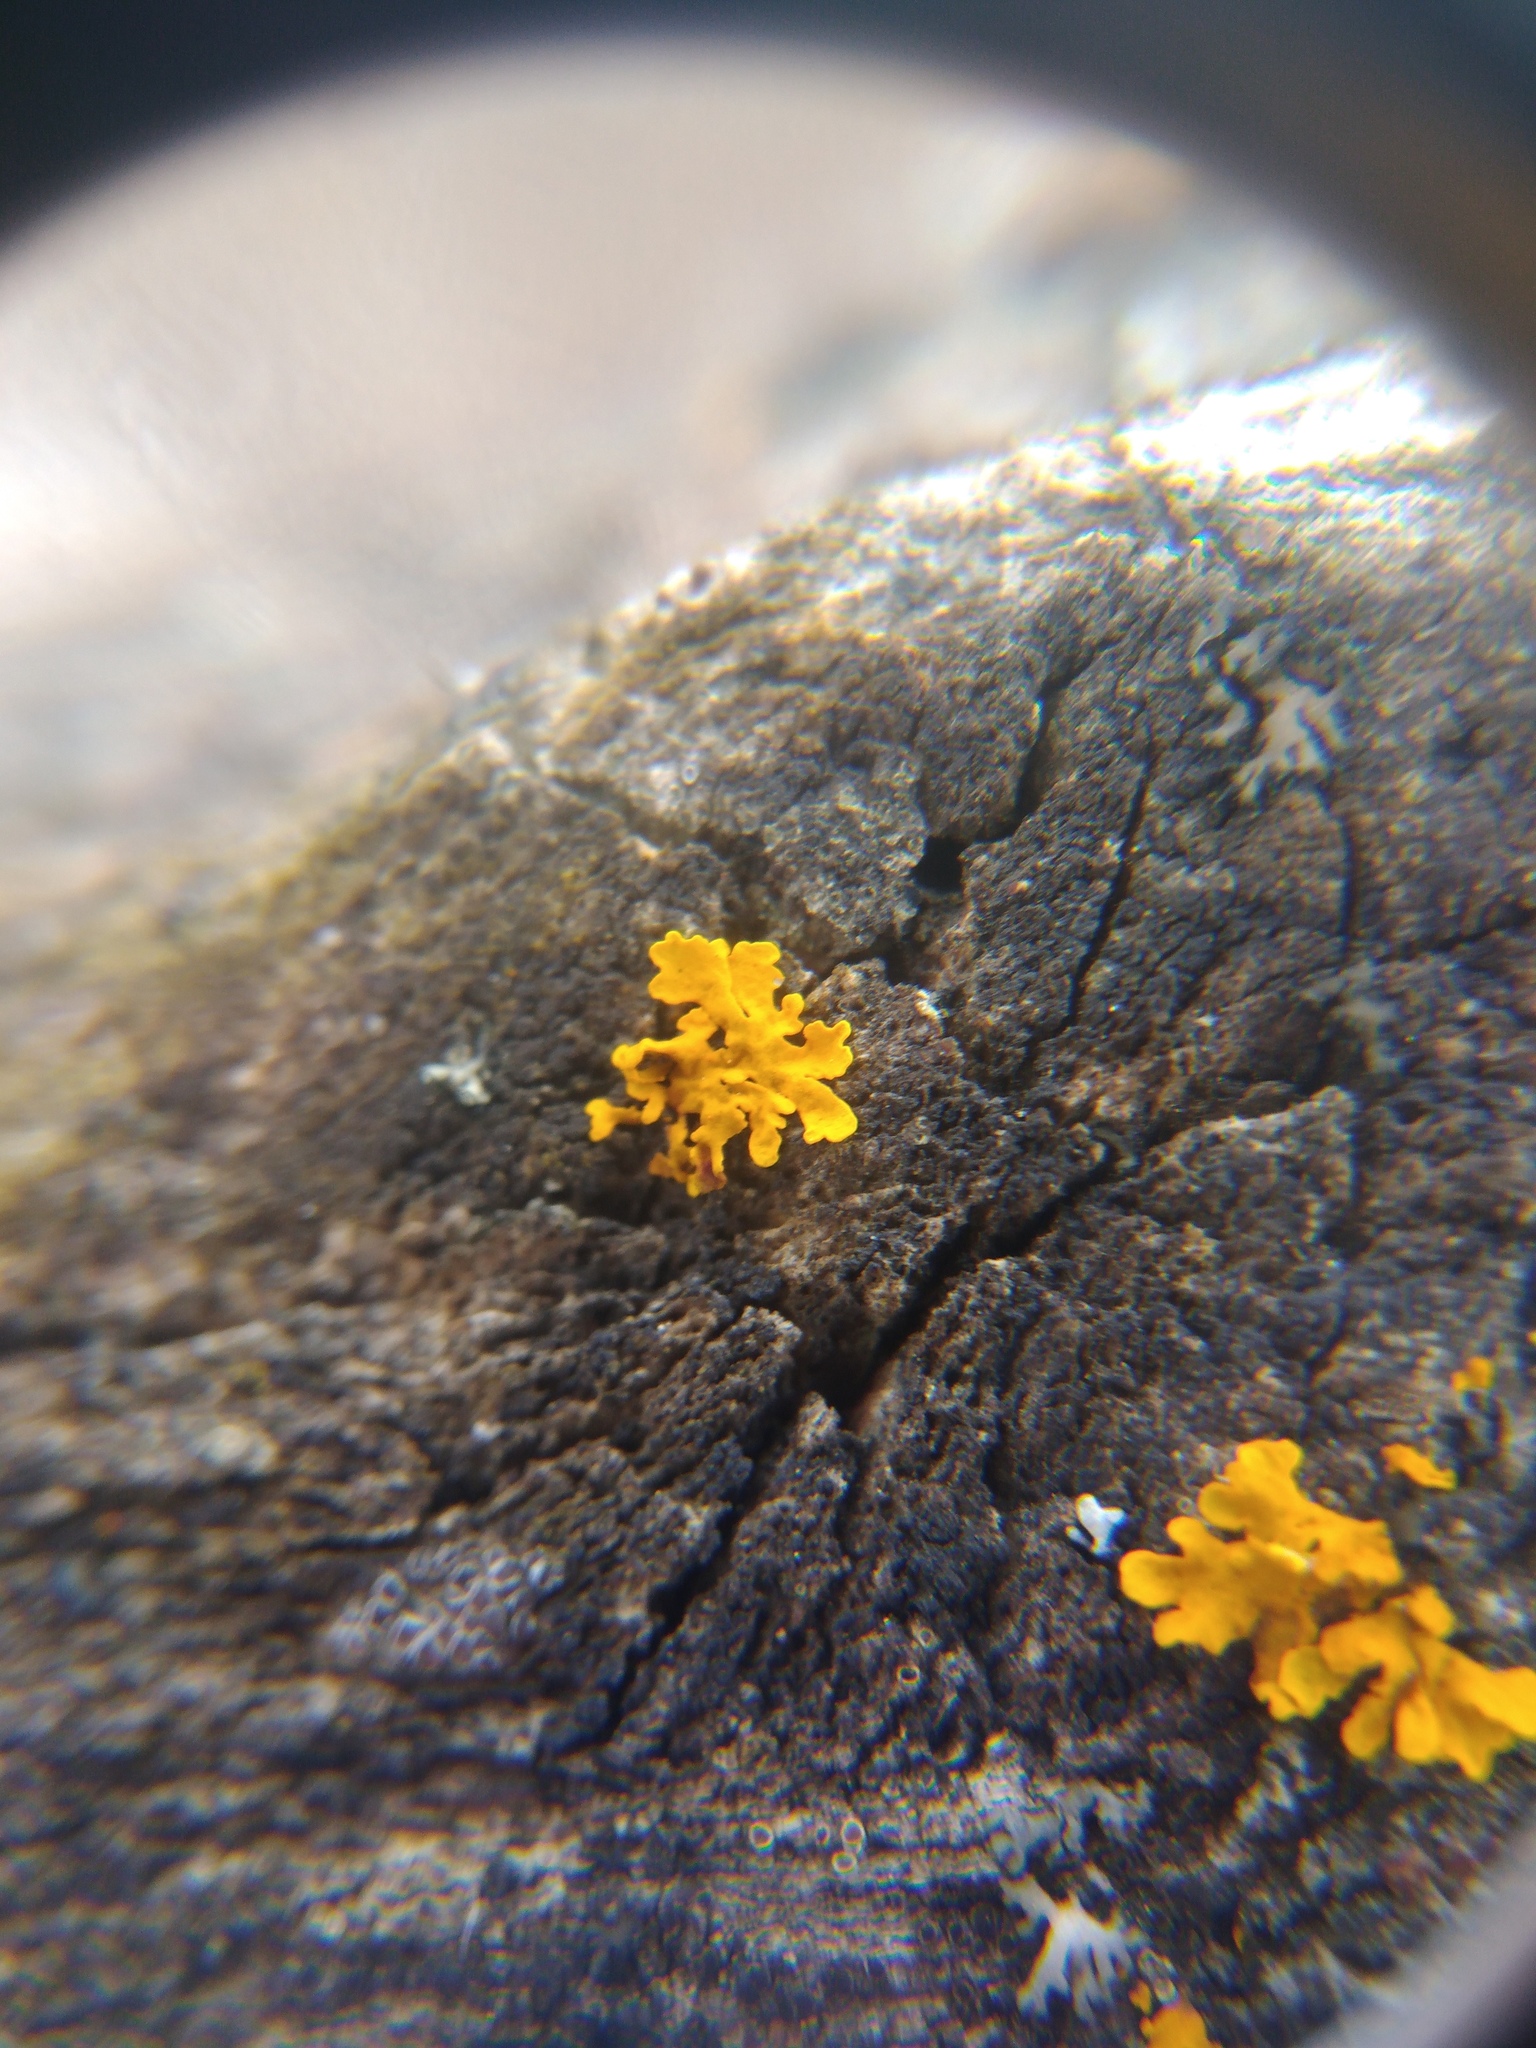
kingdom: Fungi
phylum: Ascomycota
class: Lecanoromycetes
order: Teloschistales
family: Teloschistaceae
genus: Xanthoria
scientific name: Xanthoria parietina
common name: Common orange lichen
